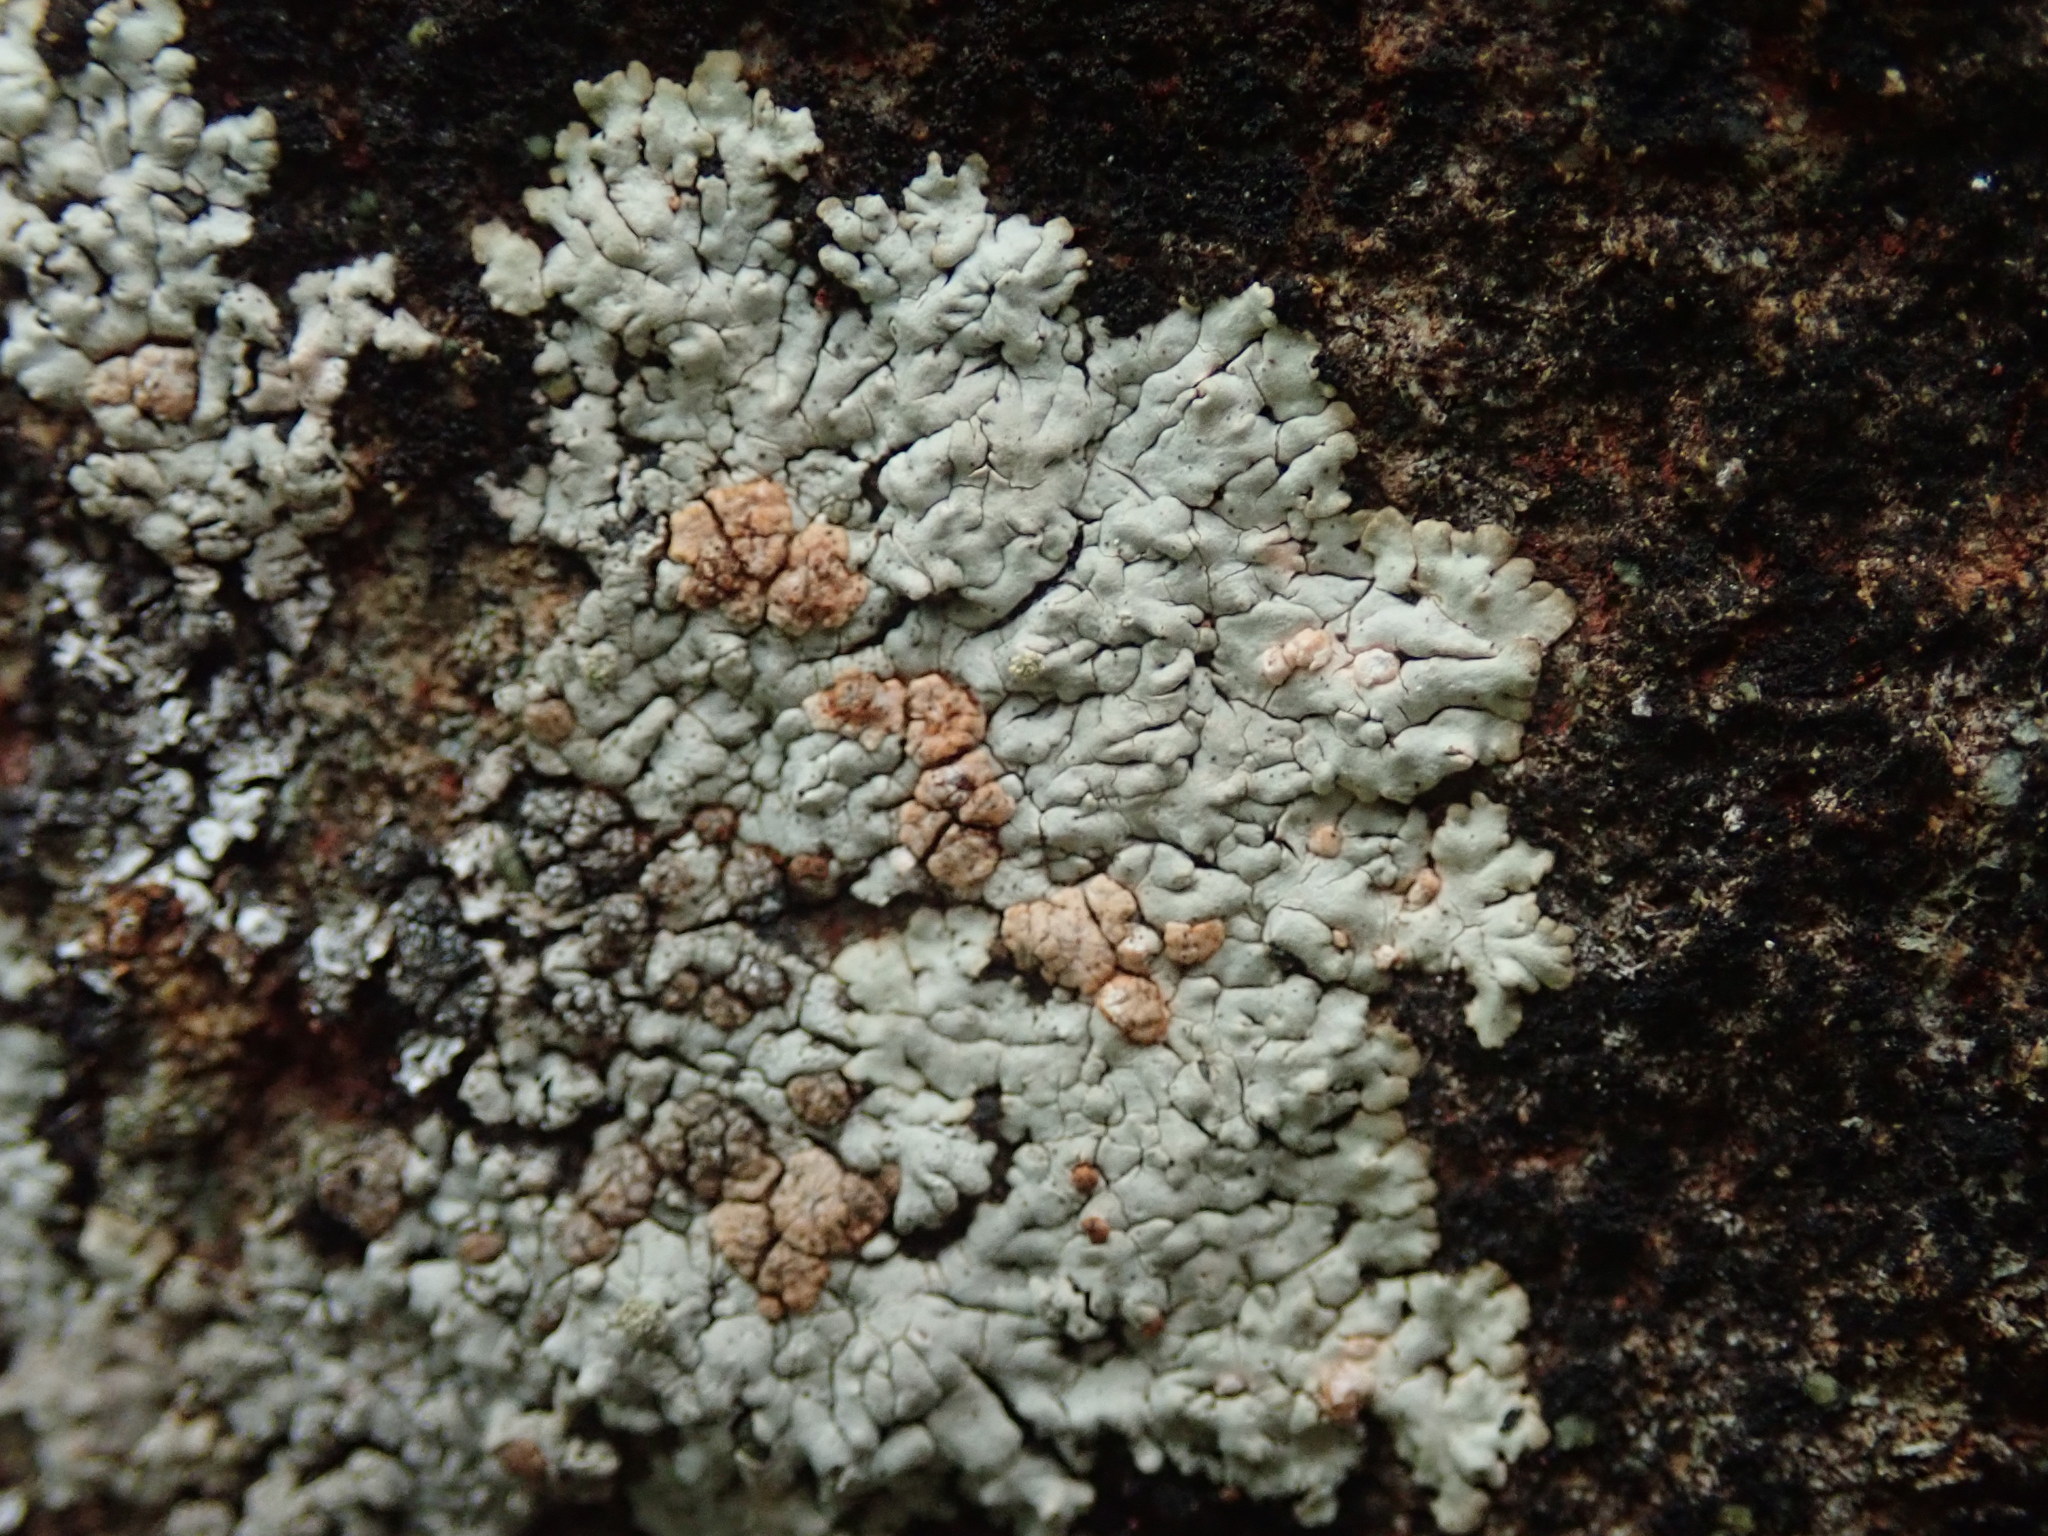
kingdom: Fungi
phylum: Ascomycota
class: Lecanoromycetes
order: Baeomycetales
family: Trapeliaceae
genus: Placopsis
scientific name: Placopsis gelida
